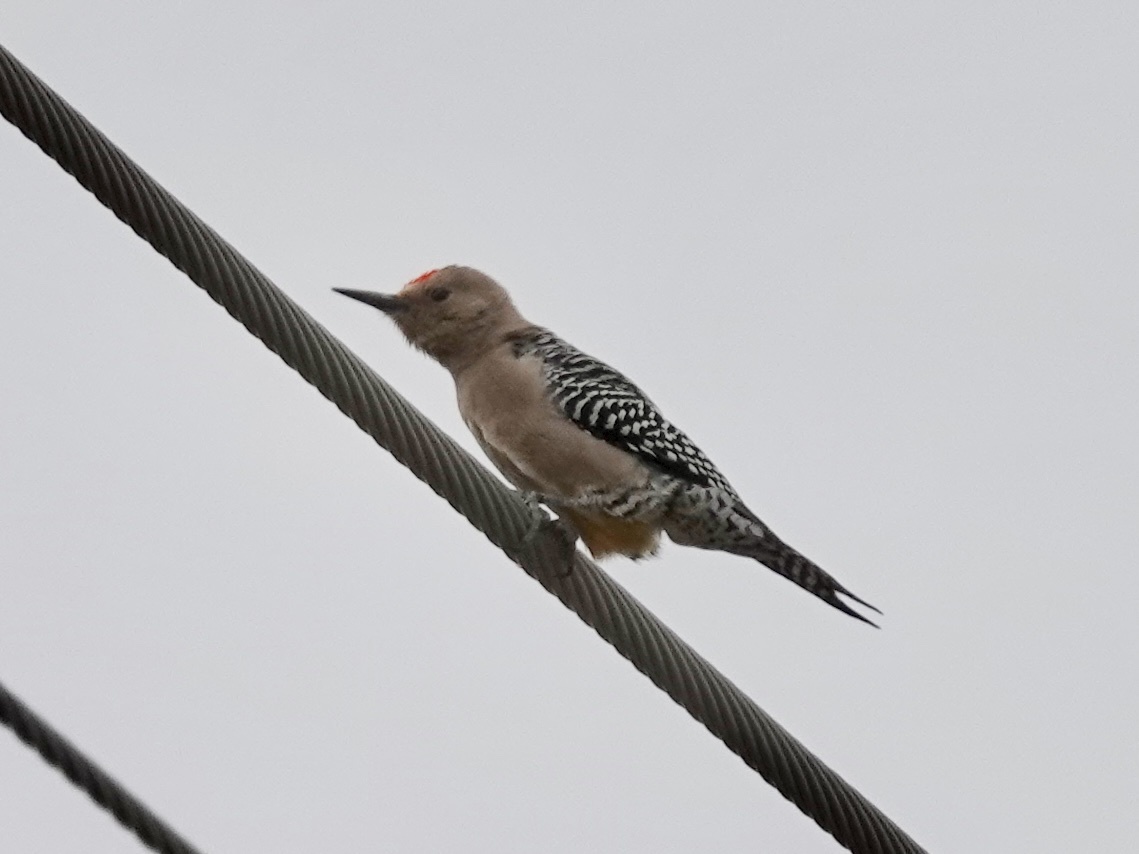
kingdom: Animalia
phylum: Chordata
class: Aves
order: Piciformes
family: Picidae
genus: Melanerpes
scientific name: Melanerpes uropygialis
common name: Gila woodpecker
